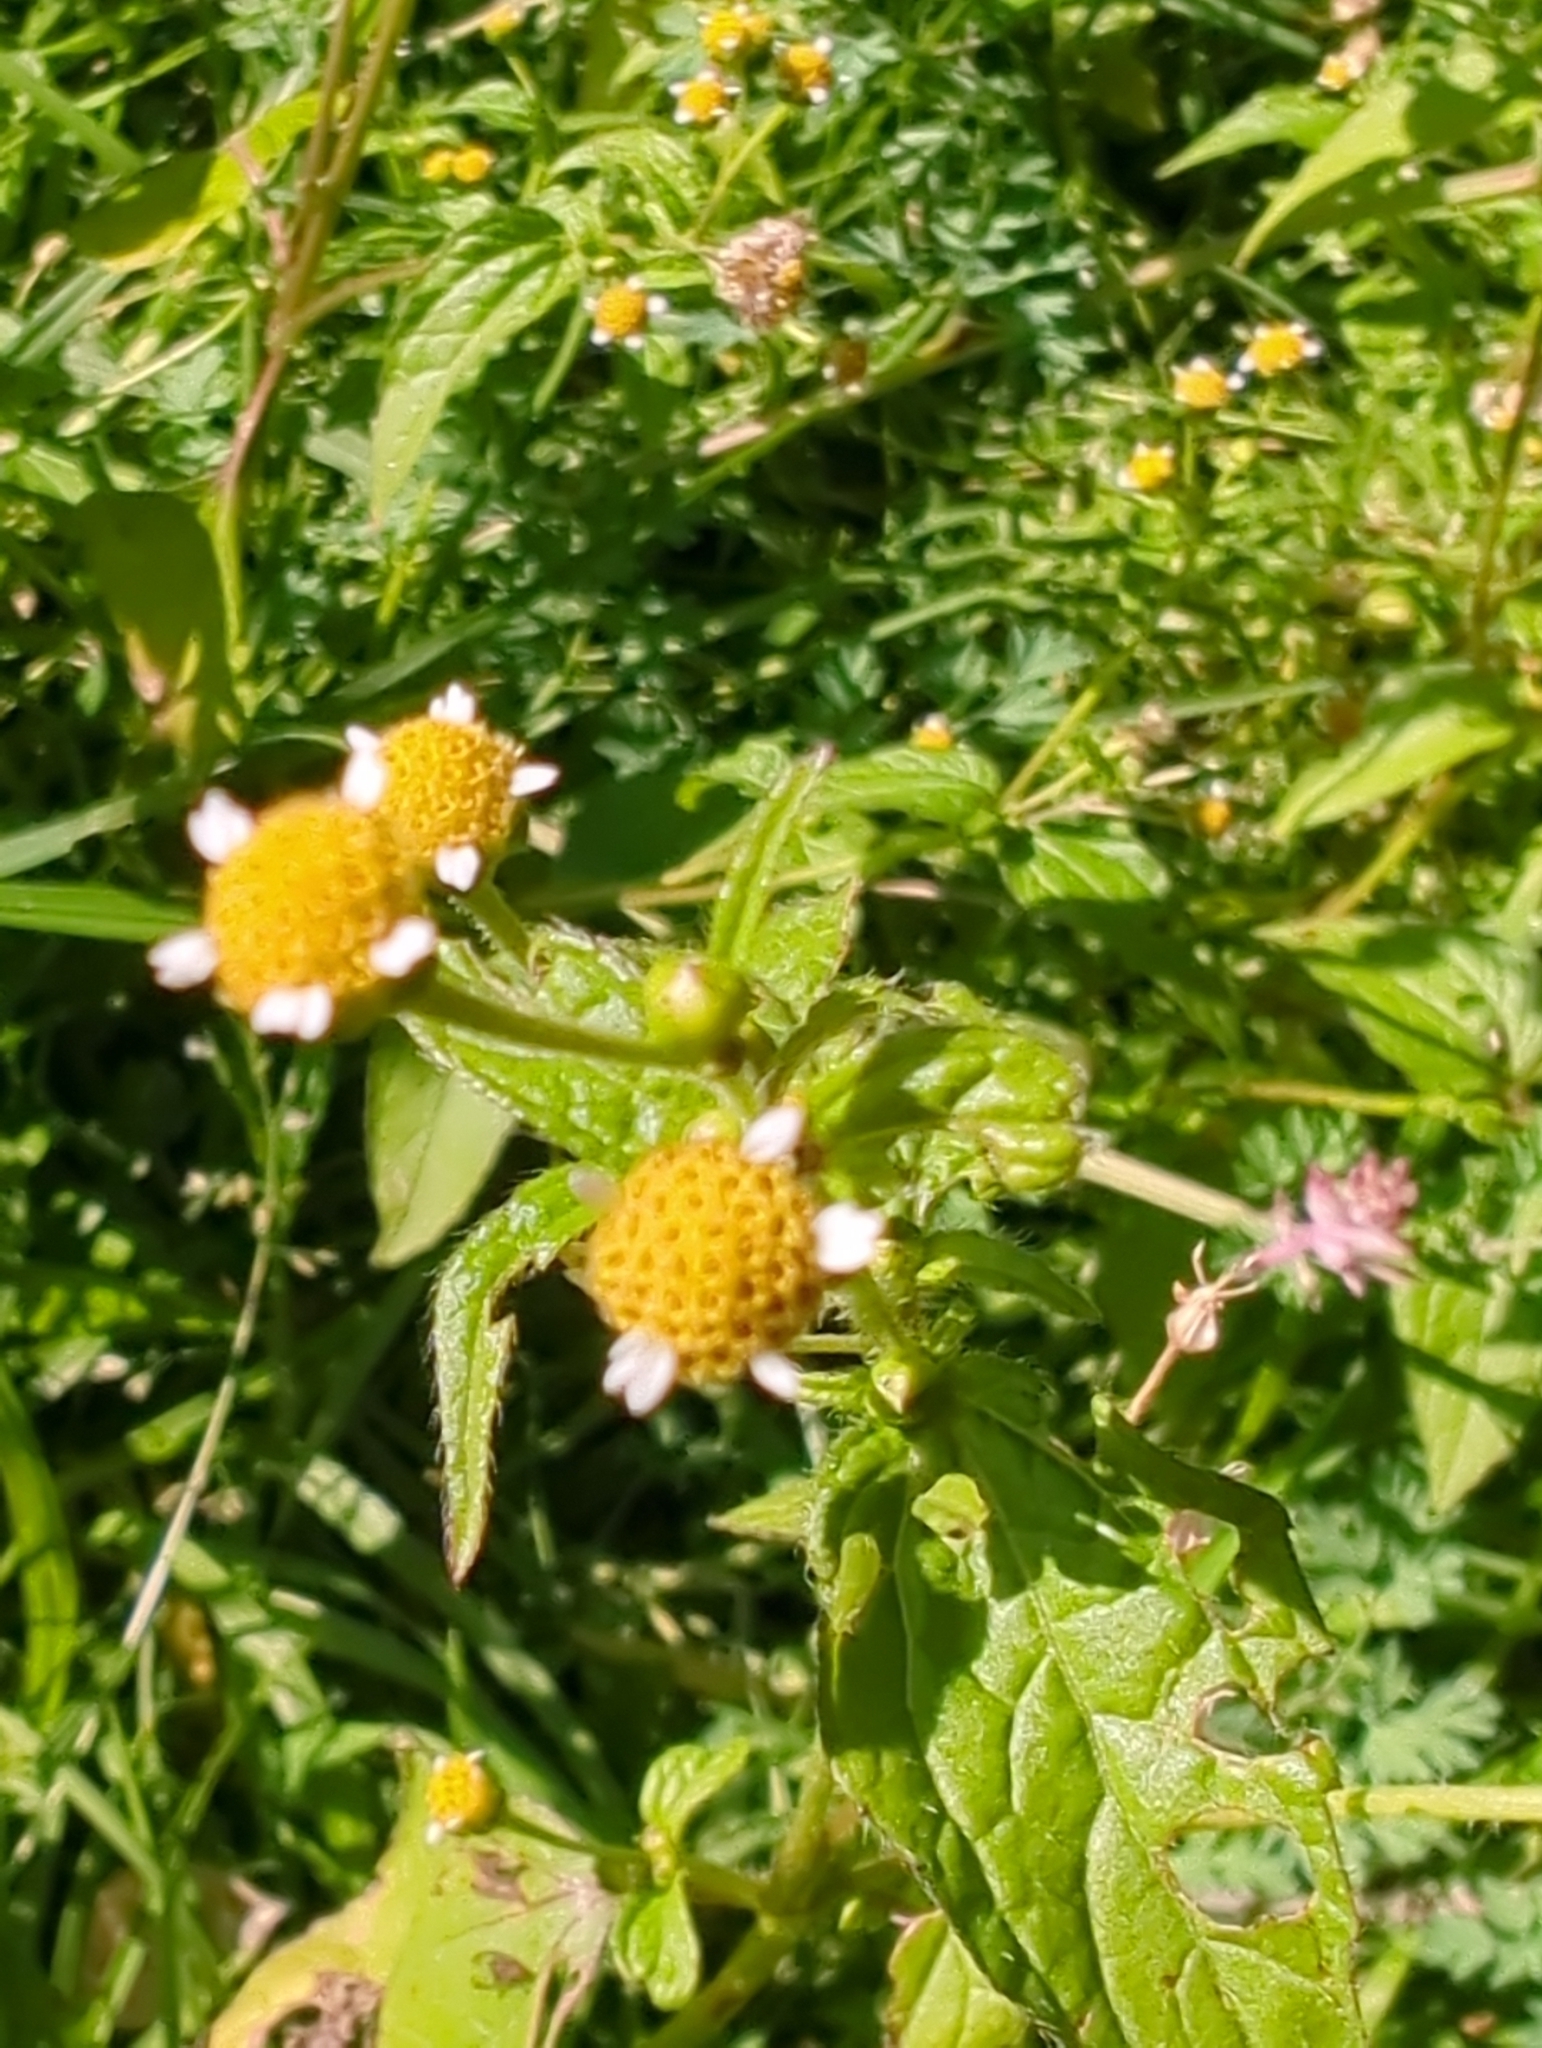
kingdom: Plantae
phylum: Tracheophyta
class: Magnoliopsida
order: Asterales
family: Asteraceae
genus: Galinsoga
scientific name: Galinsoga parviflora
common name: Gallant soldier
